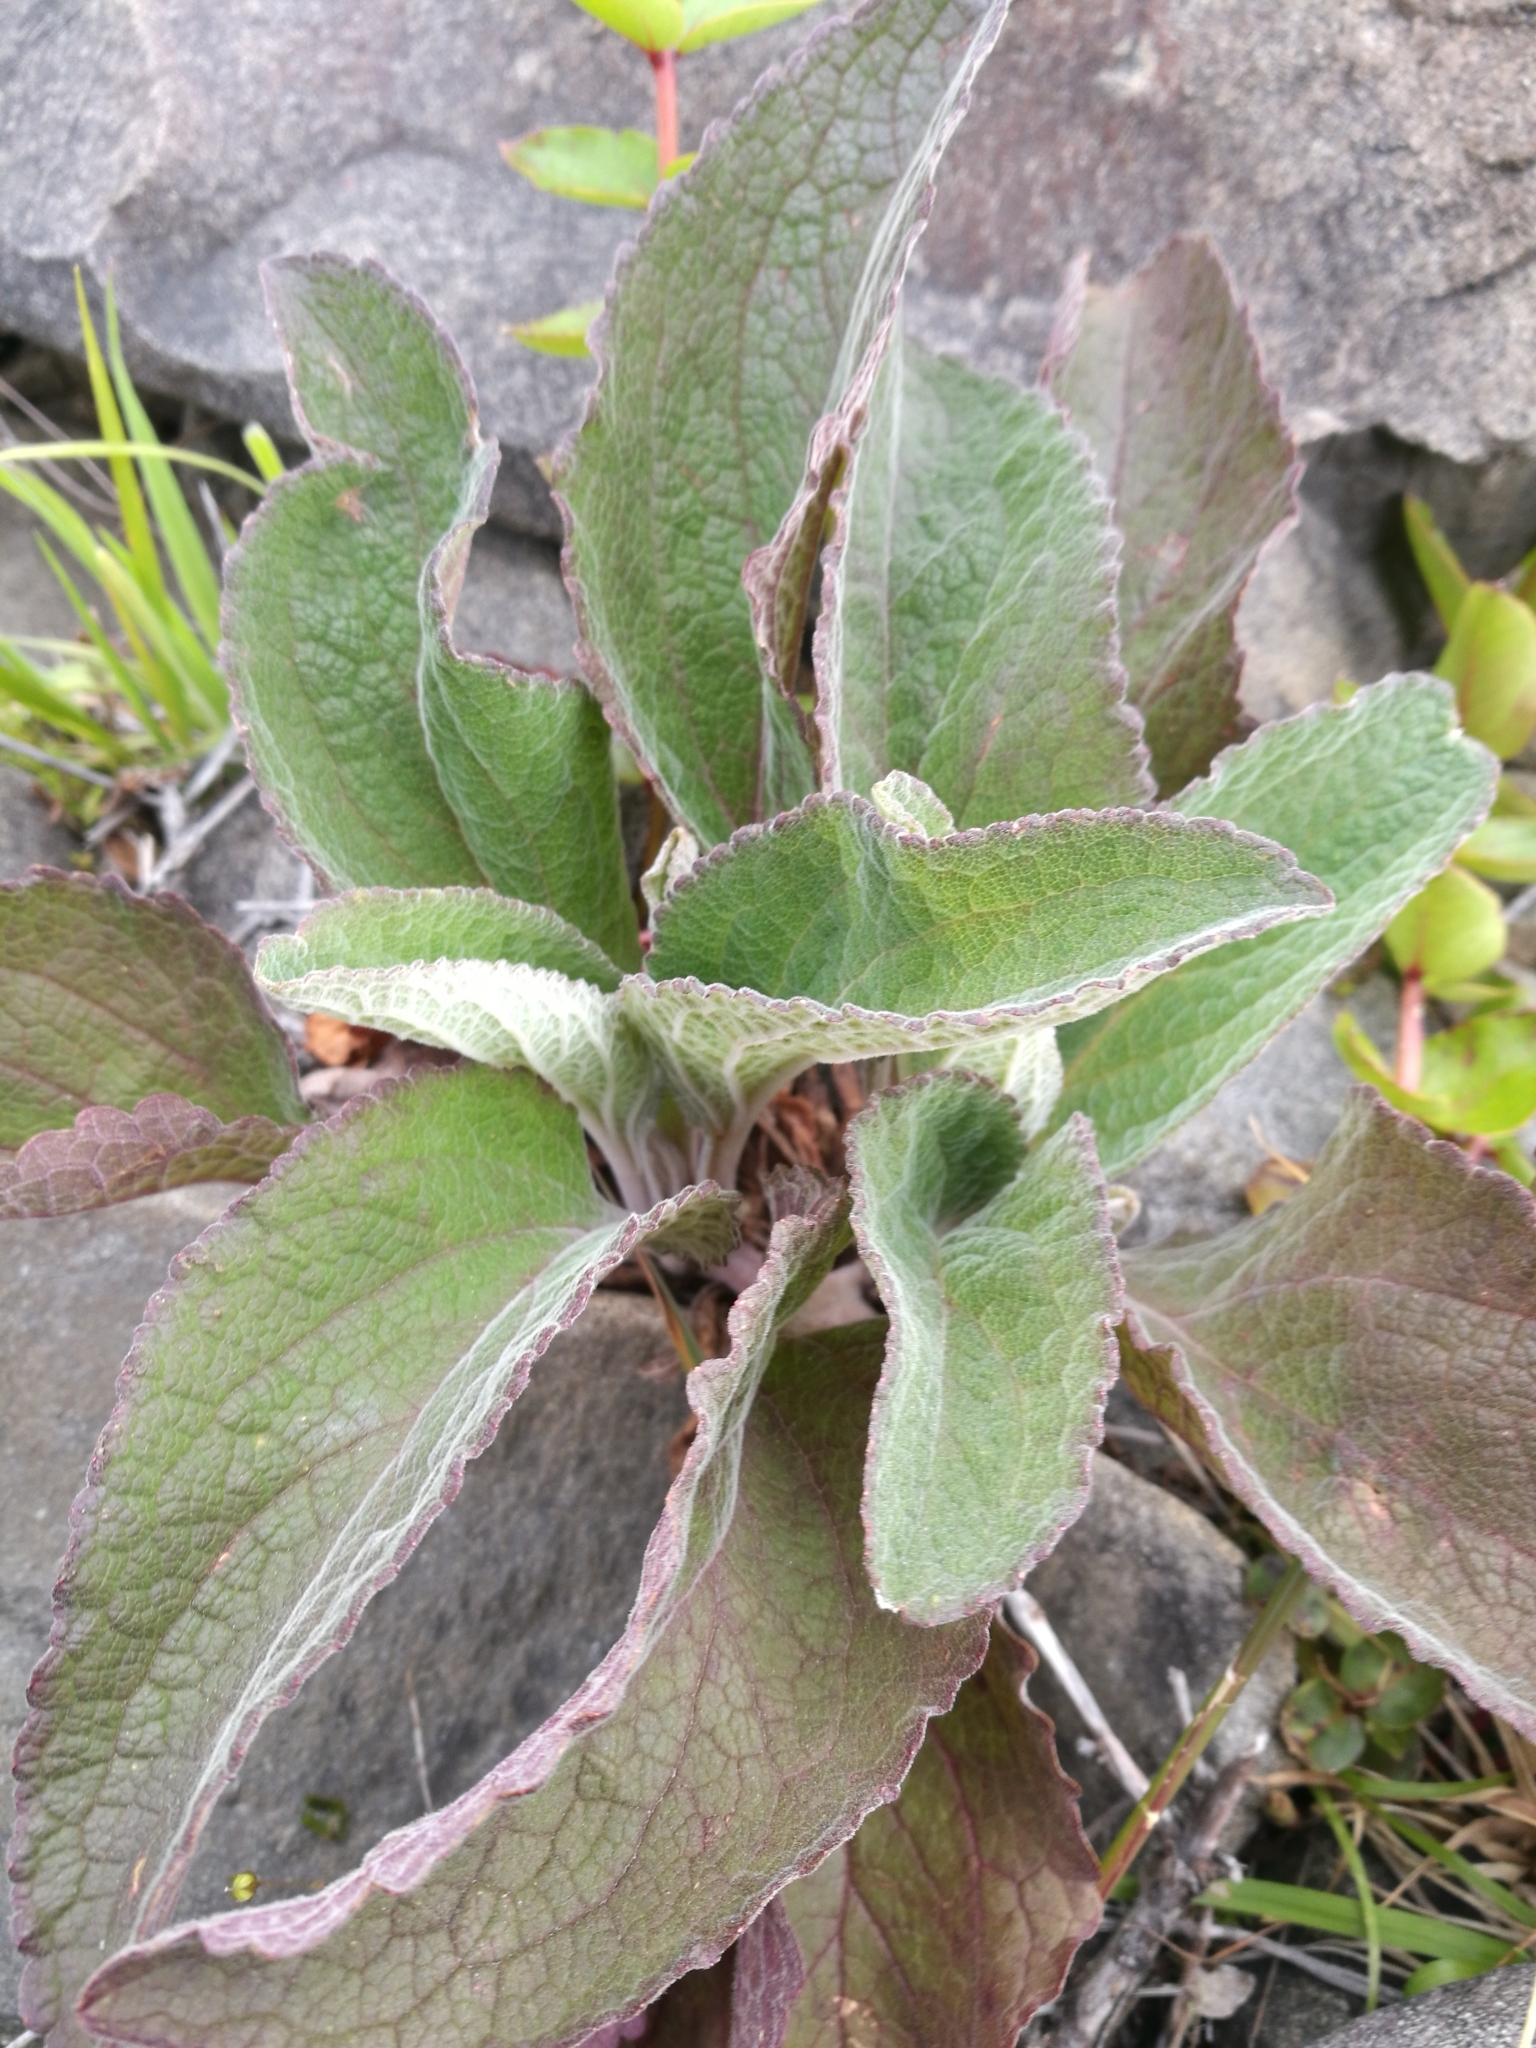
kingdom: Plantae
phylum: Tracheophyta
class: Magnoliopsida
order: Lamiales
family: Plantaginaceae
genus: Digitalis
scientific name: Digitalis purpurea
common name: Foxglove
